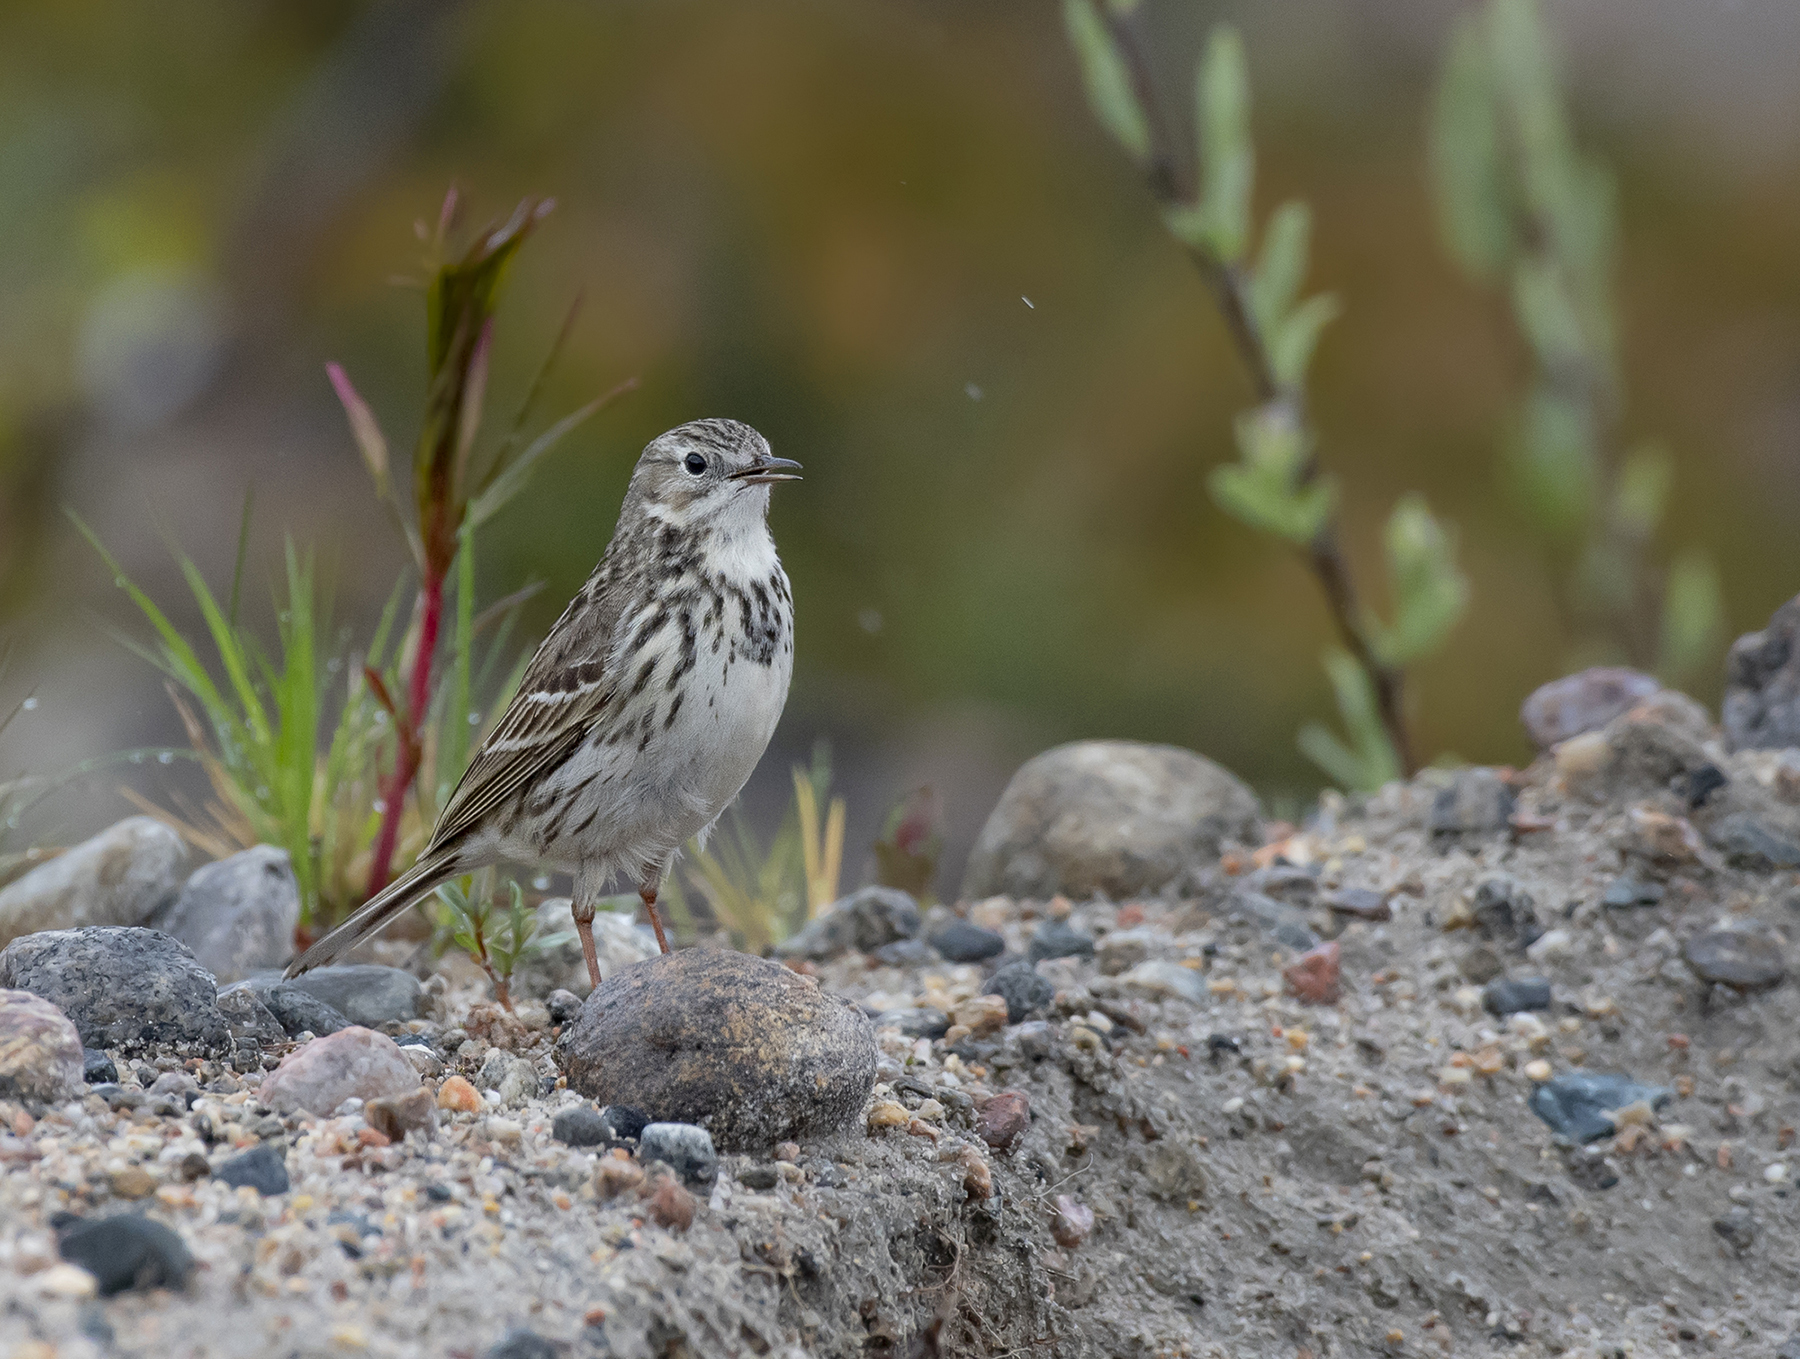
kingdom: Animalia
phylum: Chordata
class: Aves
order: Passeriformes
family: Motacillidae
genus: Anthus
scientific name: Anthus pratensis
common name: Meadow pipit
